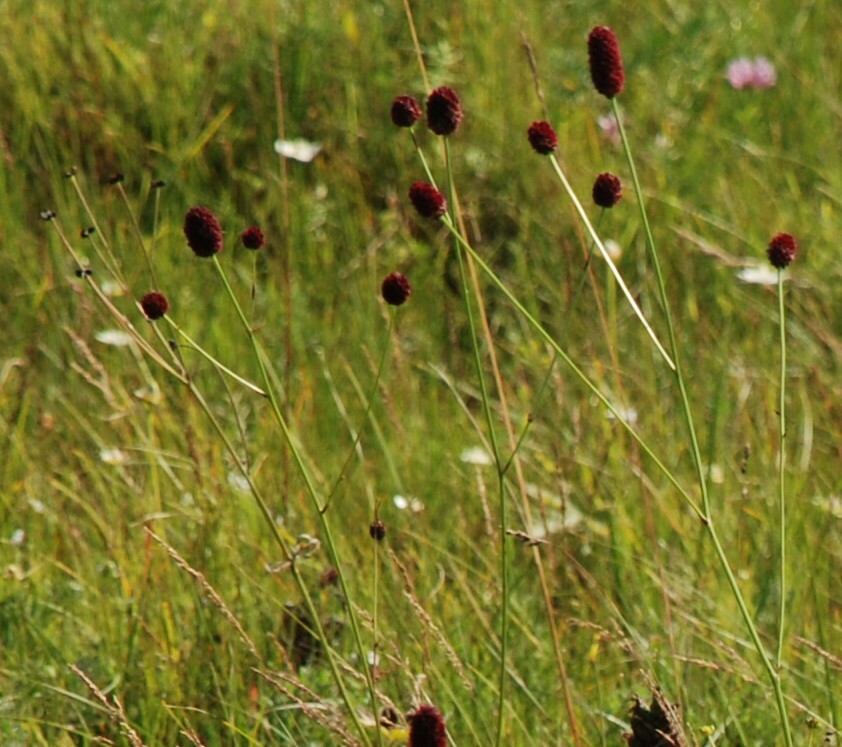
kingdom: Plantae
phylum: Tracheophyta
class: Magnoliopsida
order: Rosales
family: Rosaceae
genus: Sanguisorba
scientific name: Sanguisorba officinalis
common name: Great burnet
